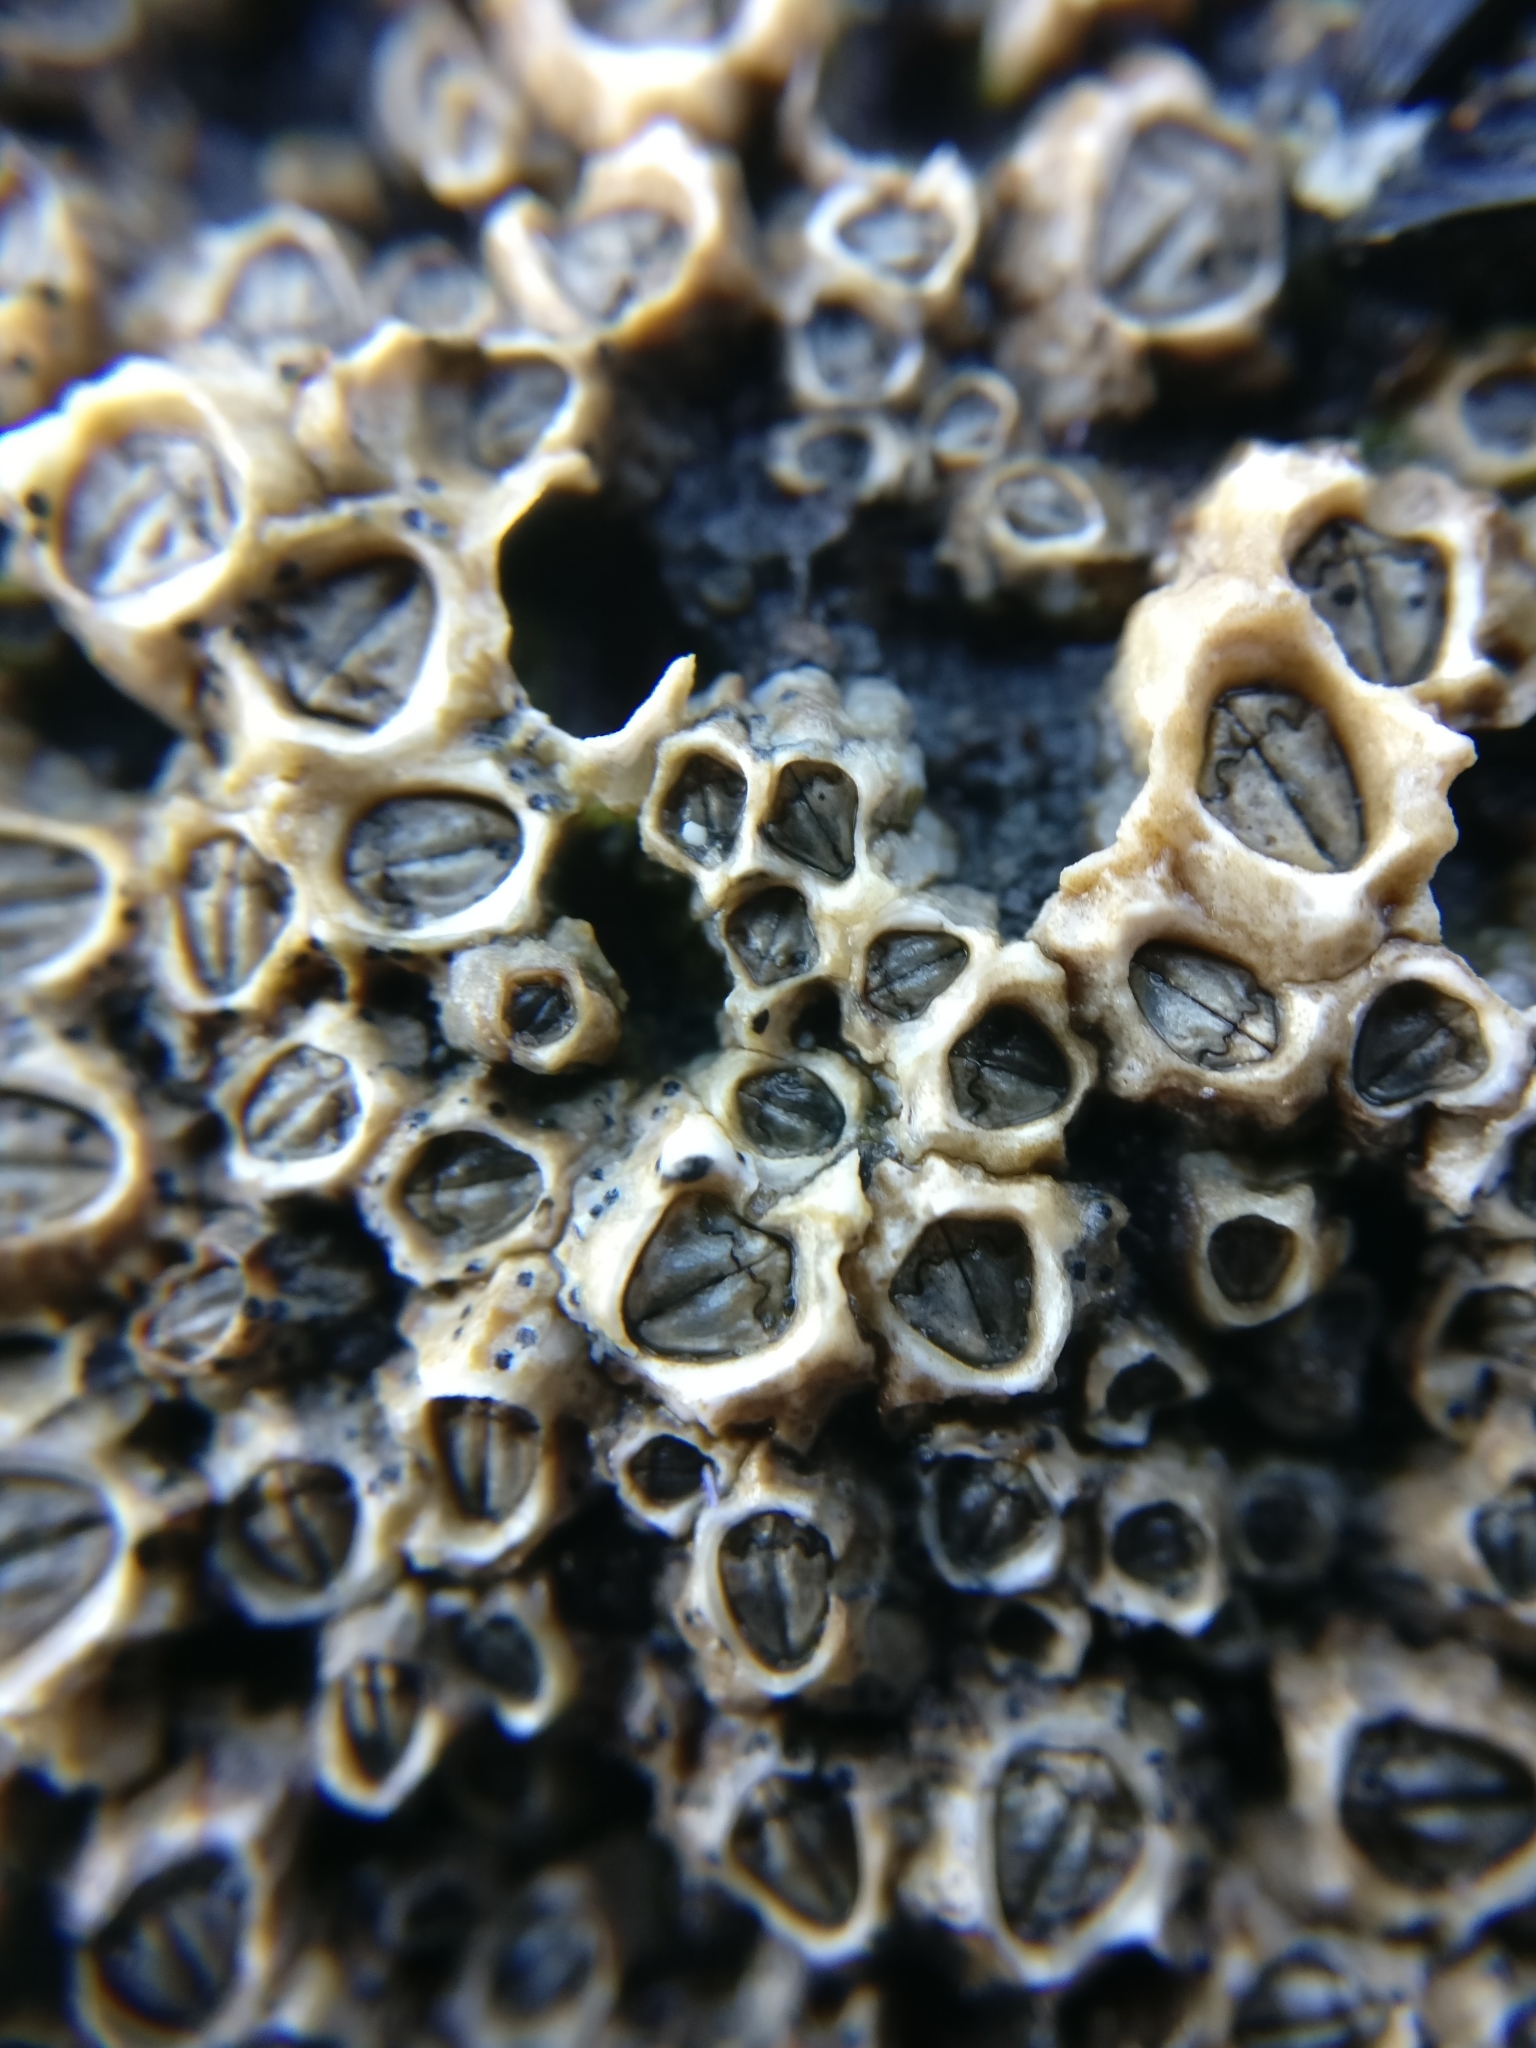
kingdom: Animalia
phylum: Arthropoda
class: Maxillopoda
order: Sessilia
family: Chthamalidae
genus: Chamaesipho
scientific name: Chamaesipho columna
